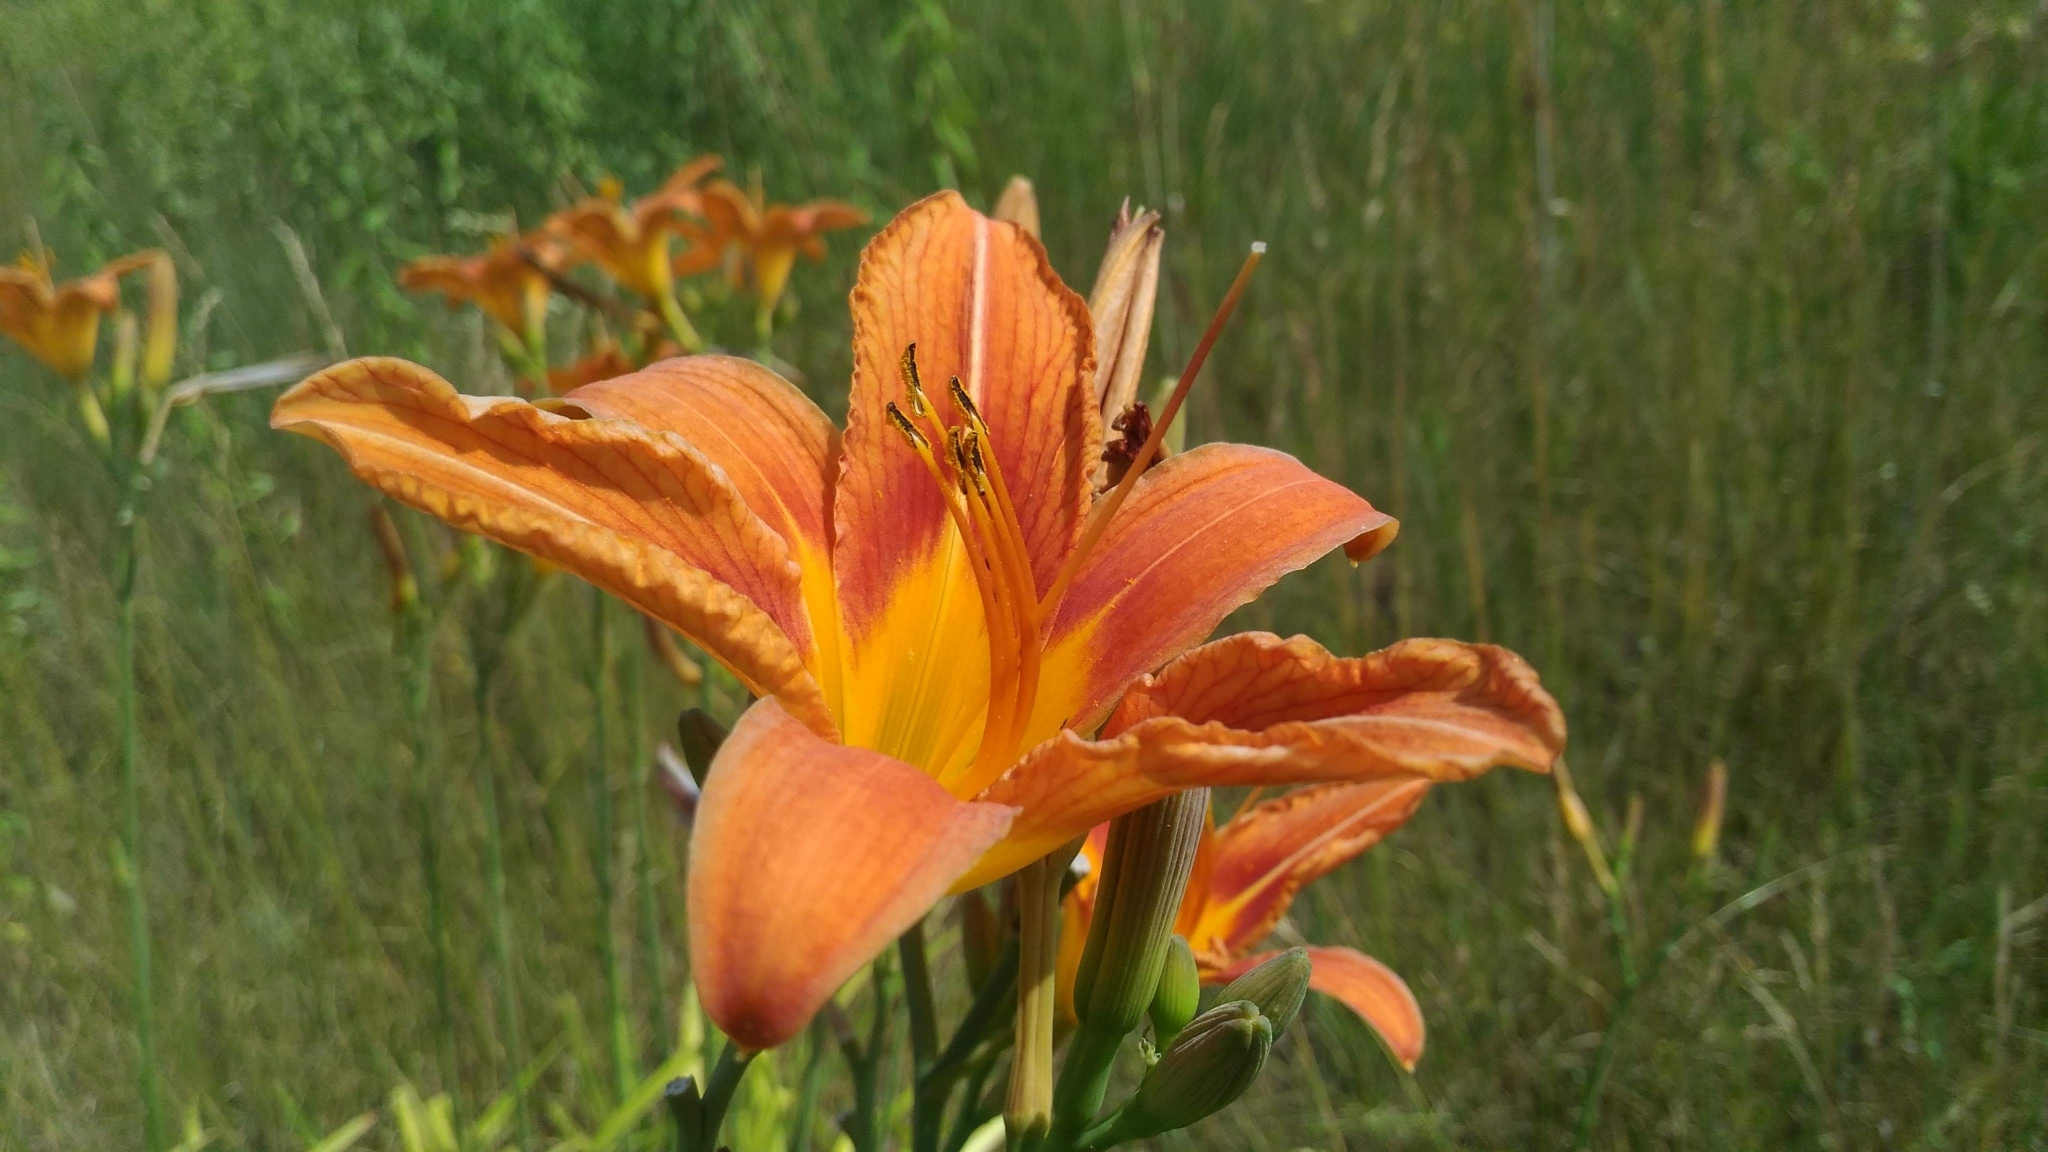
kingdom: Plantae
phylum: Tracheophyta
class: Liliopsida
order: Asparagales
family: Asphodelaceae
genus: Hemerocallis
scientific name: Hemerocallis fulva
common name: Orange day-lily
